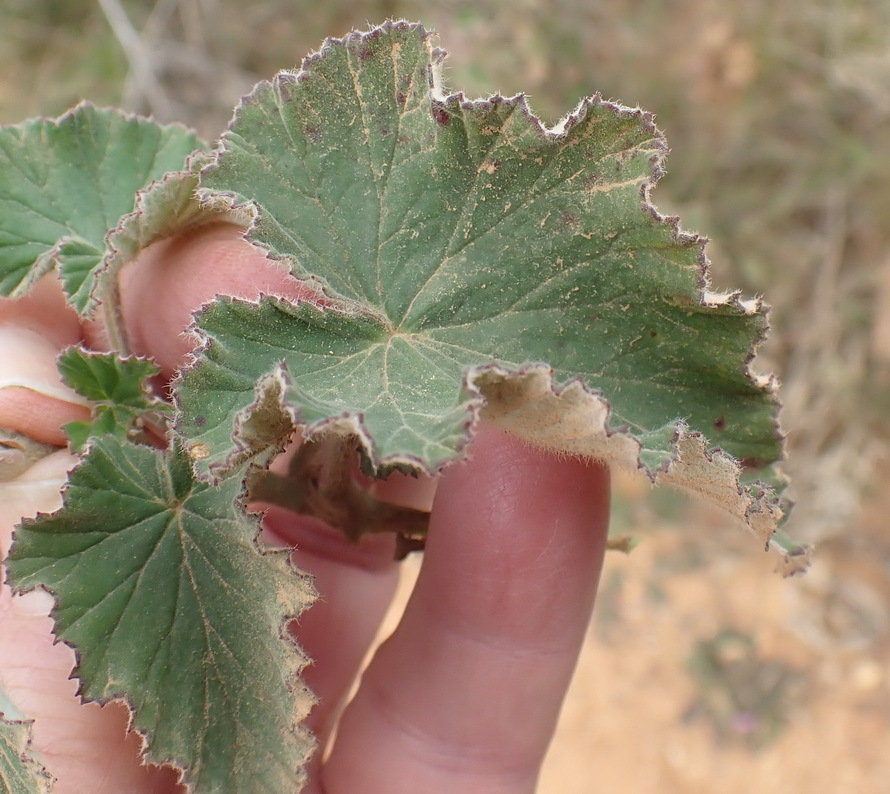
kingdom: Plantae
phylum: Tracheophyta
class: Magnoliopsida
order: Geraniales
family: Geraniaceae
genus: Pelargonium
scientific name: Pelargonium cordifolium
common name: Heart-leaf pelargonium
